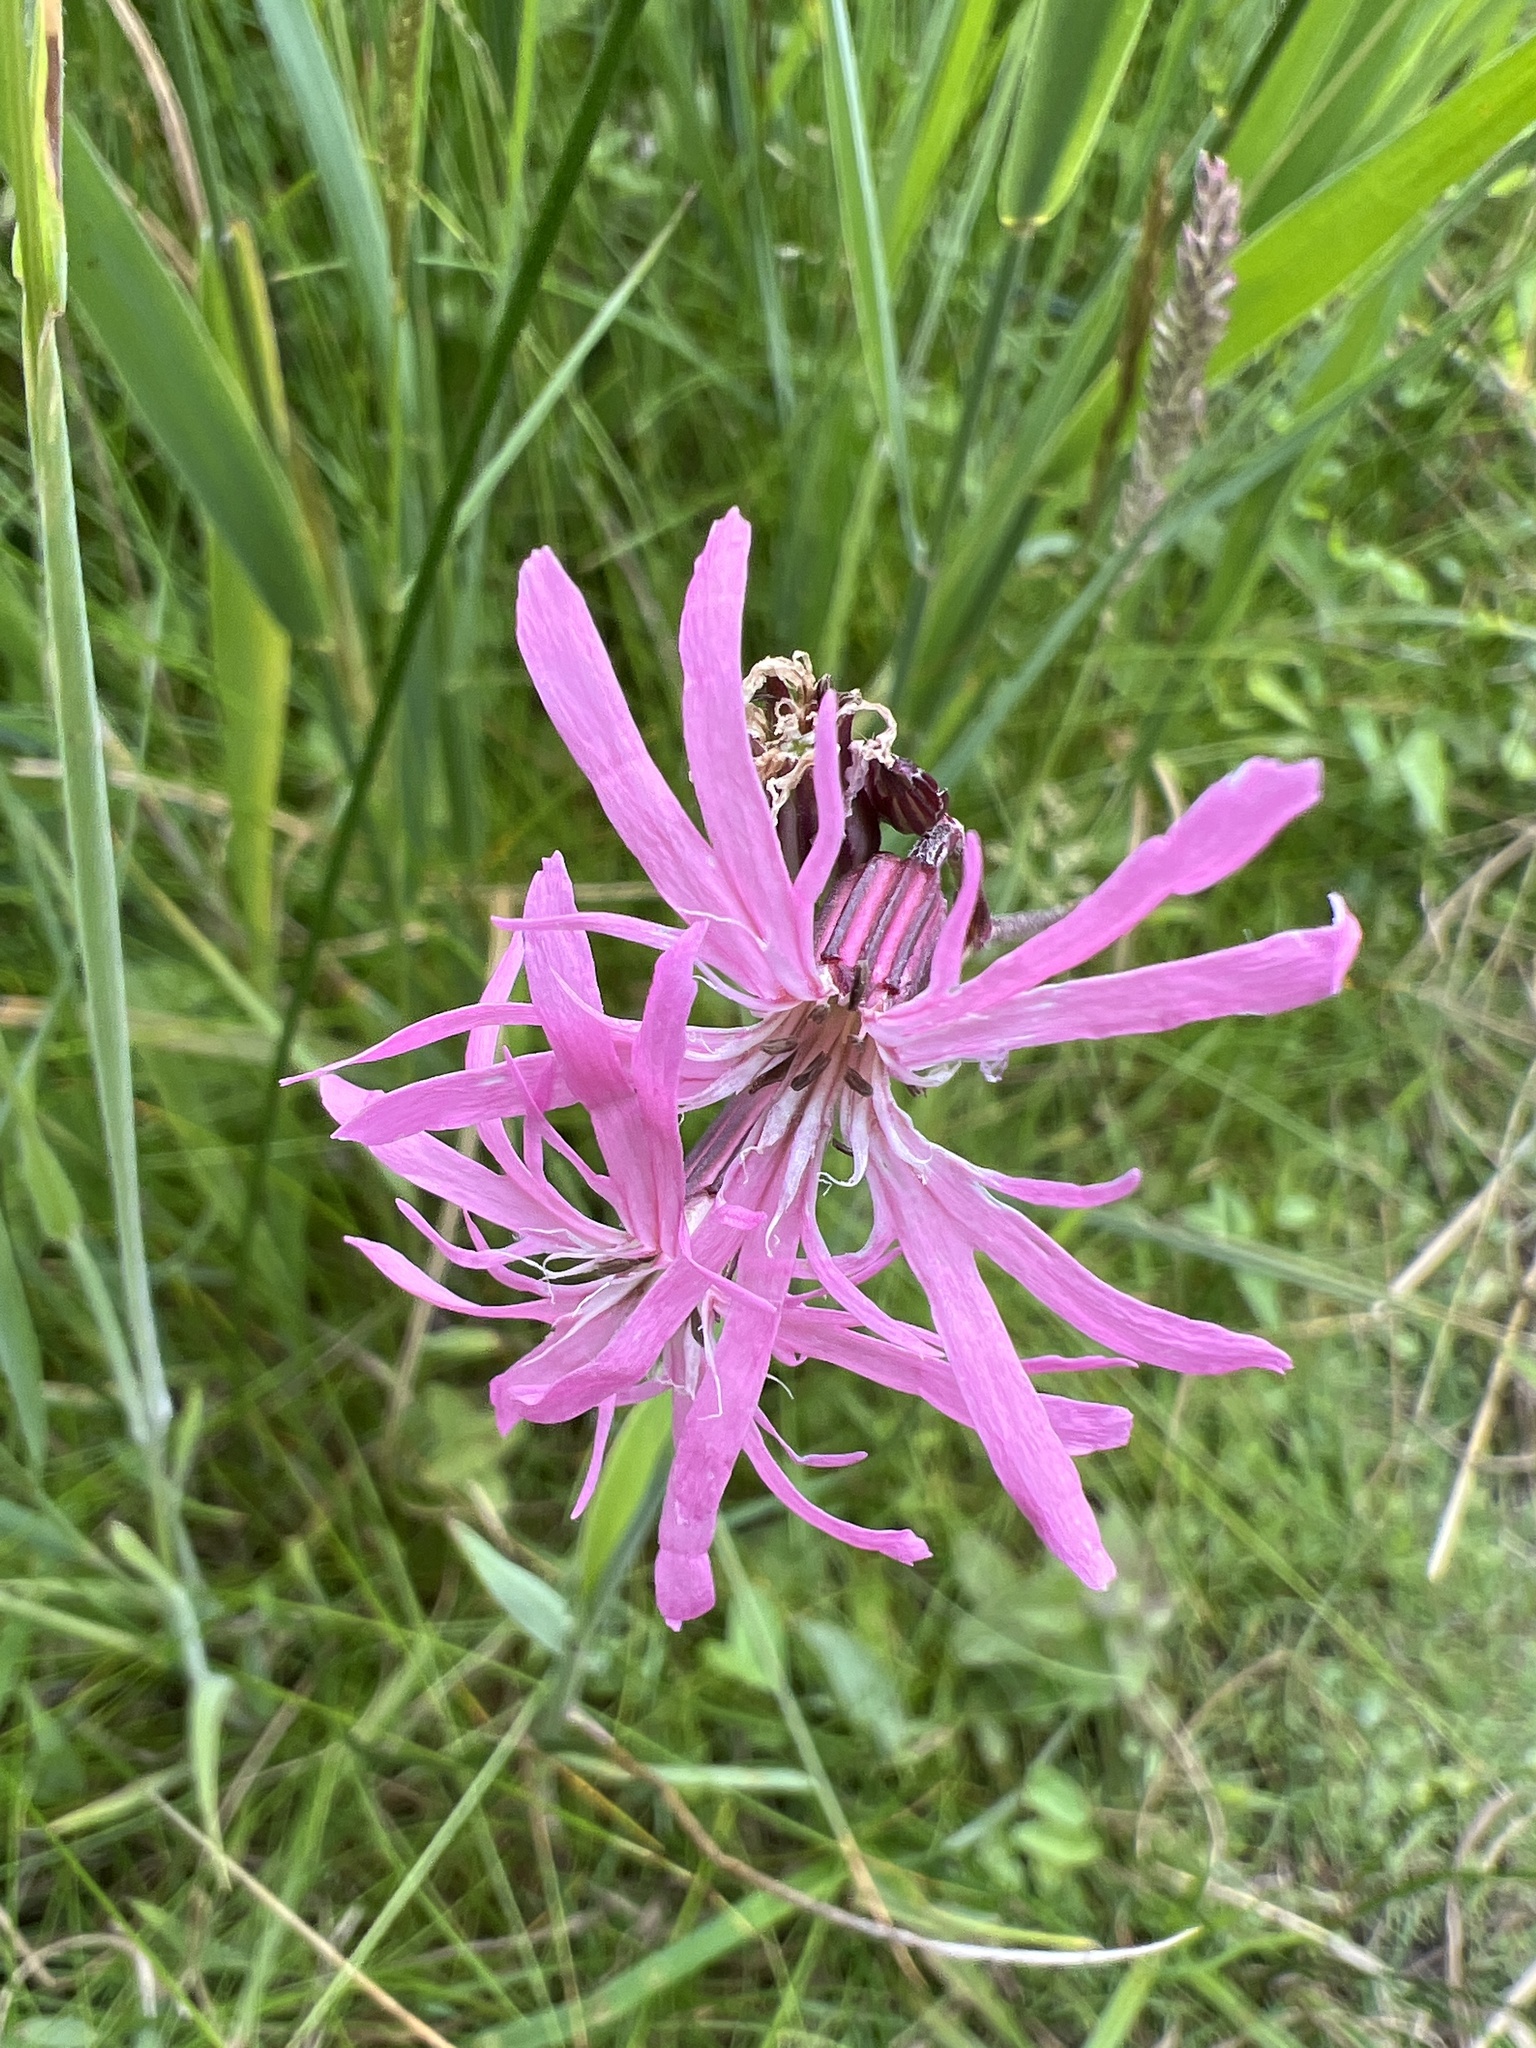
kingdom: Plantae
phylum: Tracheophyta
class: Magnoliopsida
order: Caryophyllales
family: Caryophyllaceae
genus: Silene
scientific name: Silene flos-cuculi
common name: Ragged-robin
